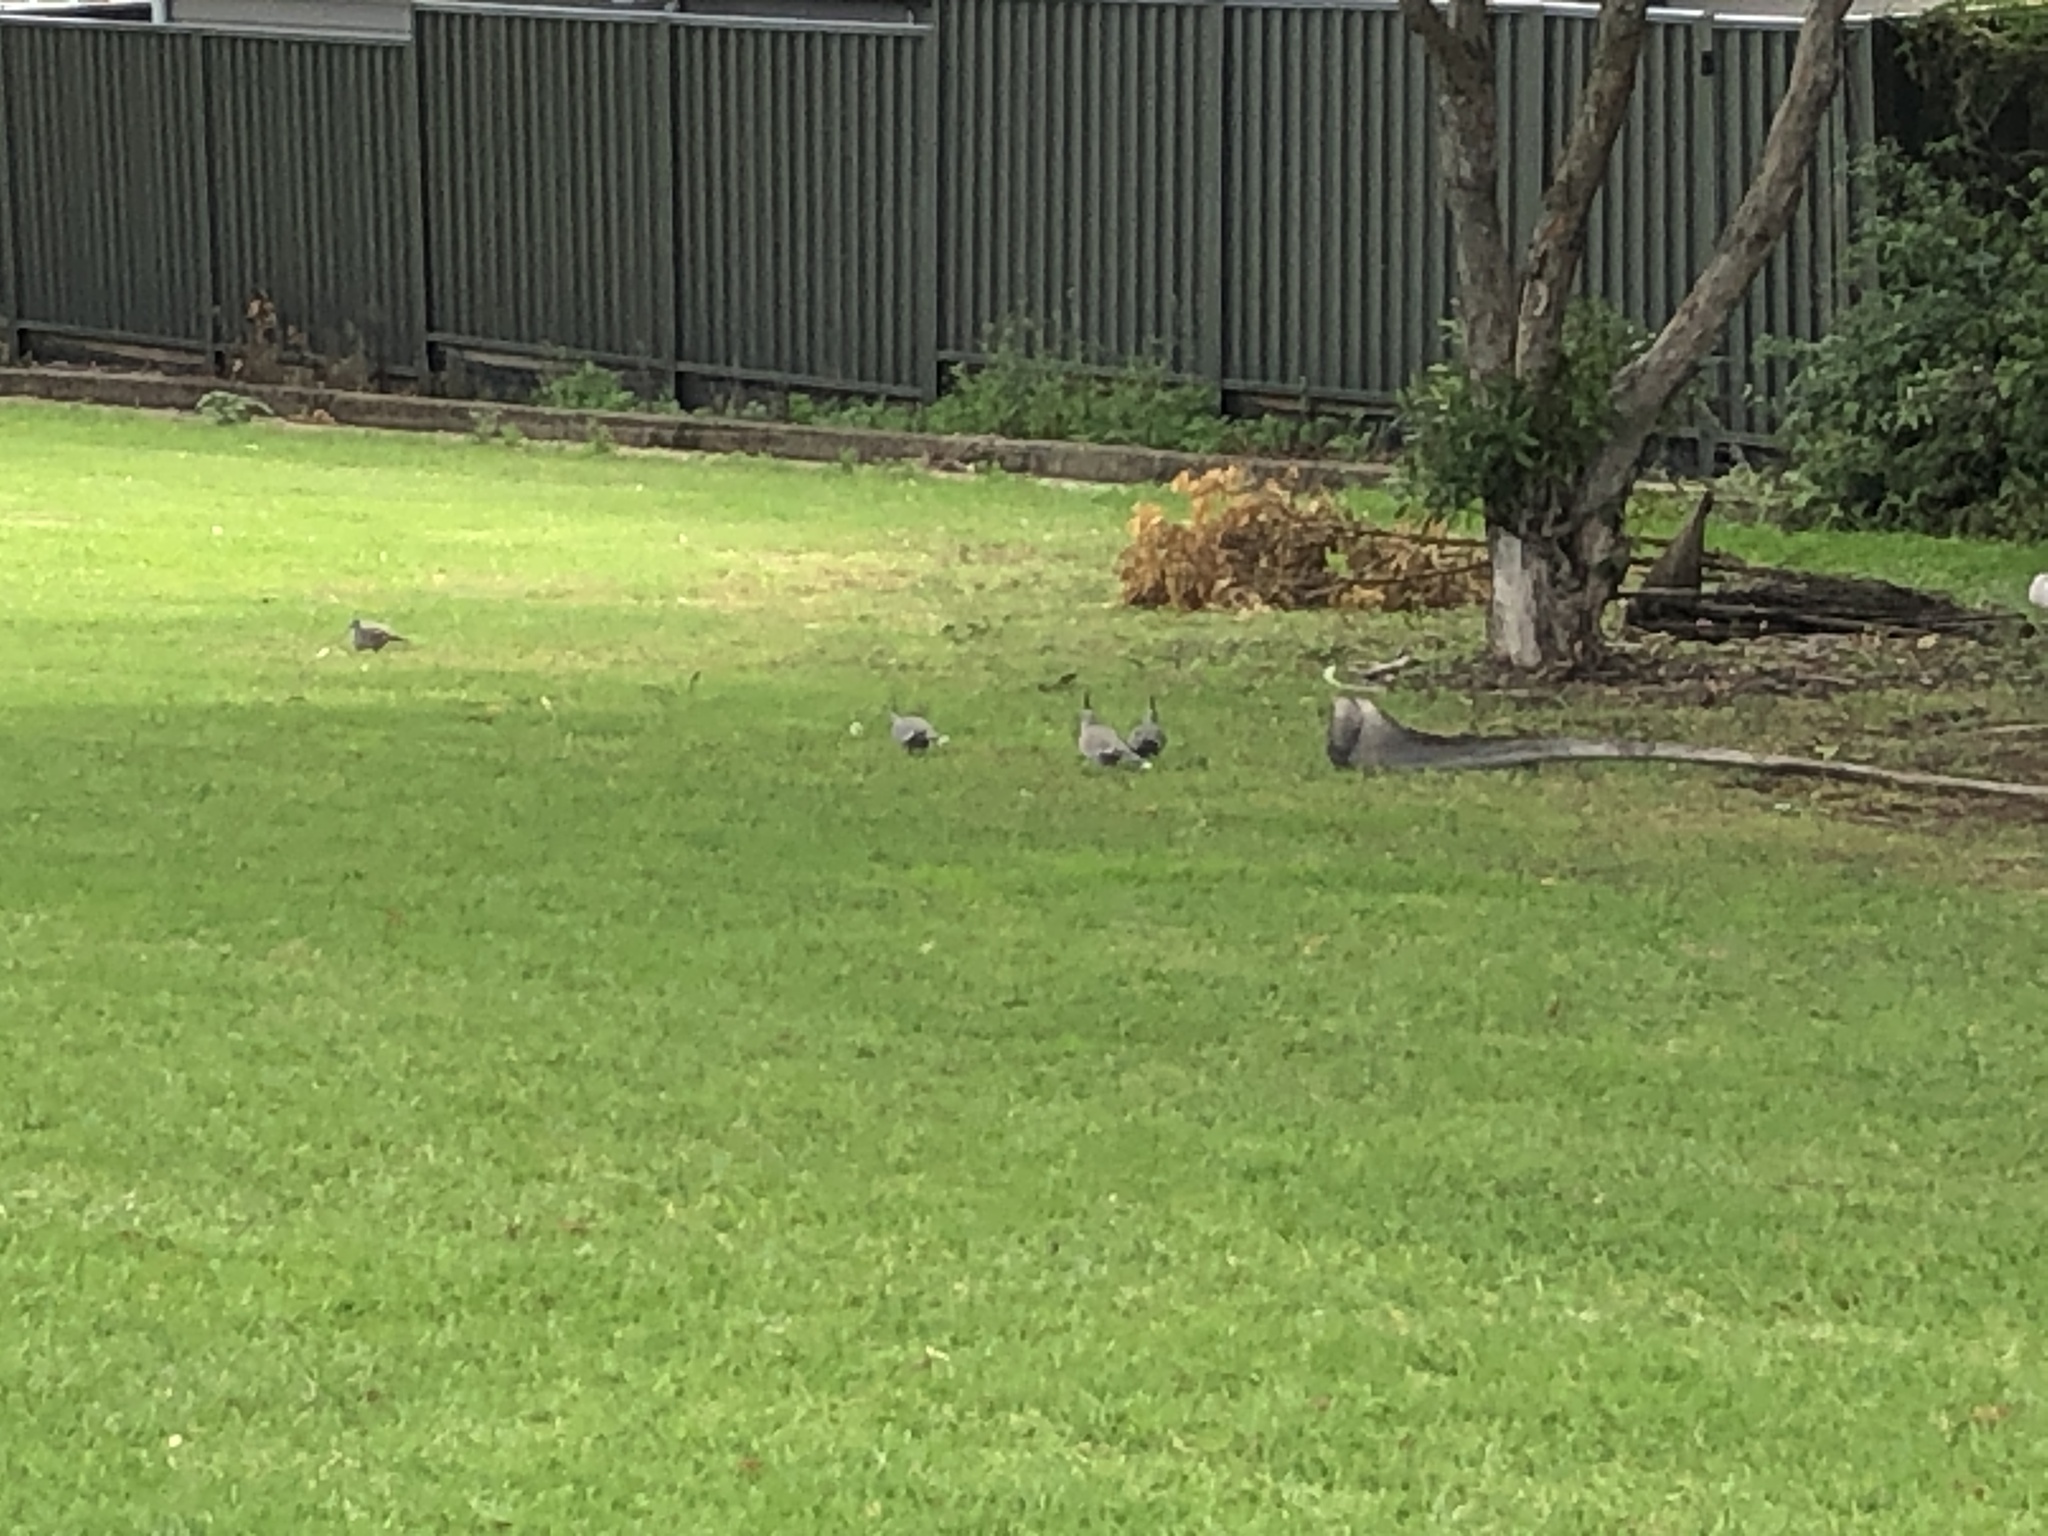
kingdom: Animalia
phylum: Chordata
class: Aves
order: Columbiformes
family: Columbidae
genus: Ocyphaps
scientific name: Ocyphaps lophotes
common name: Crested pigeon
